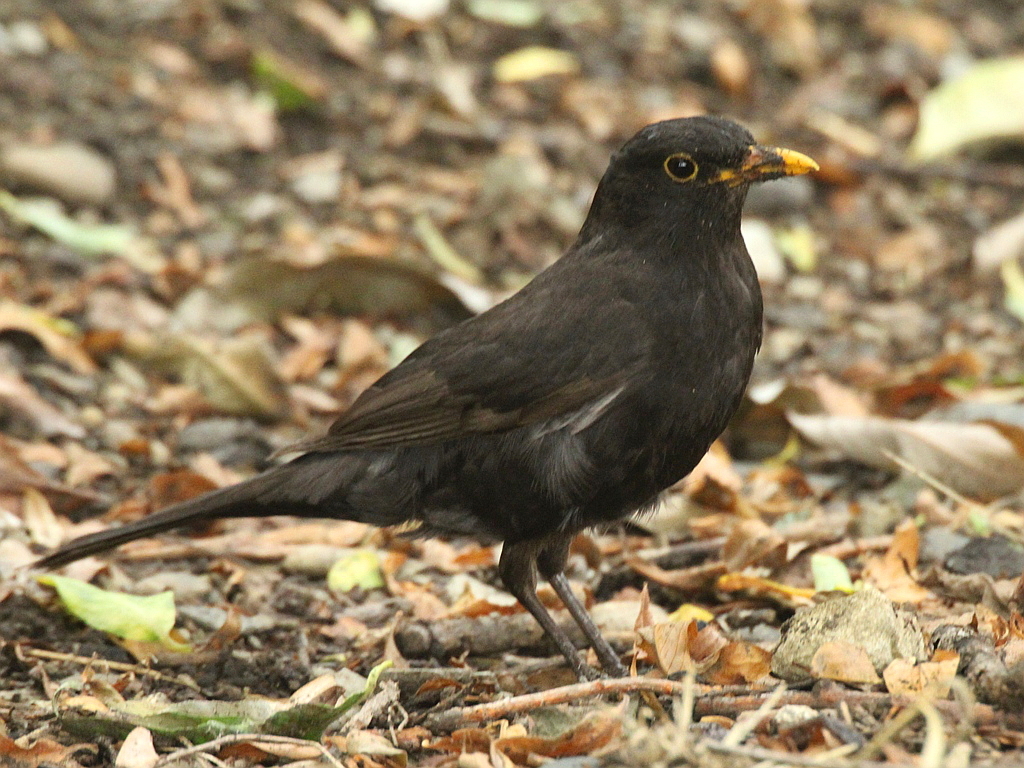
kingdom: Animalia
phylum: Chordata
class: Aves
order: Passeriformes
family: Turdidae
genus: Turdus
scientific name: Turdus merula
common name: Common blackbird
